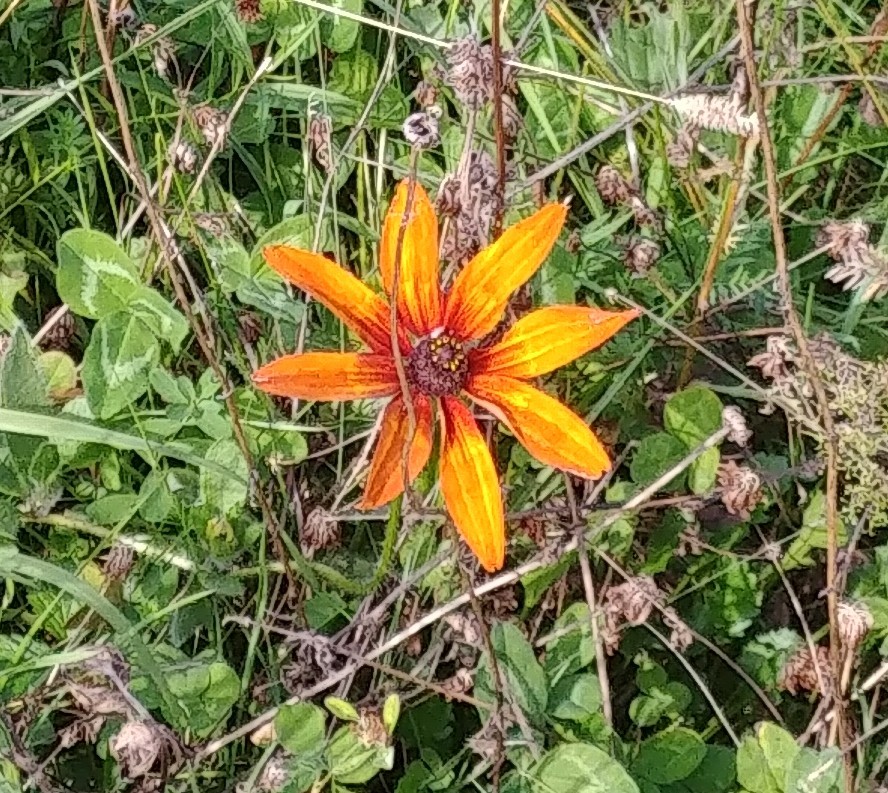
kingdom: Plantae
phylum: Tracheophyta
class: Magnoliopsida
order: Asterales
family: Asteraceae
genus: Rudbeckia
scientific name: Rudbeckia hirta
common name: Black-eyed-susan
